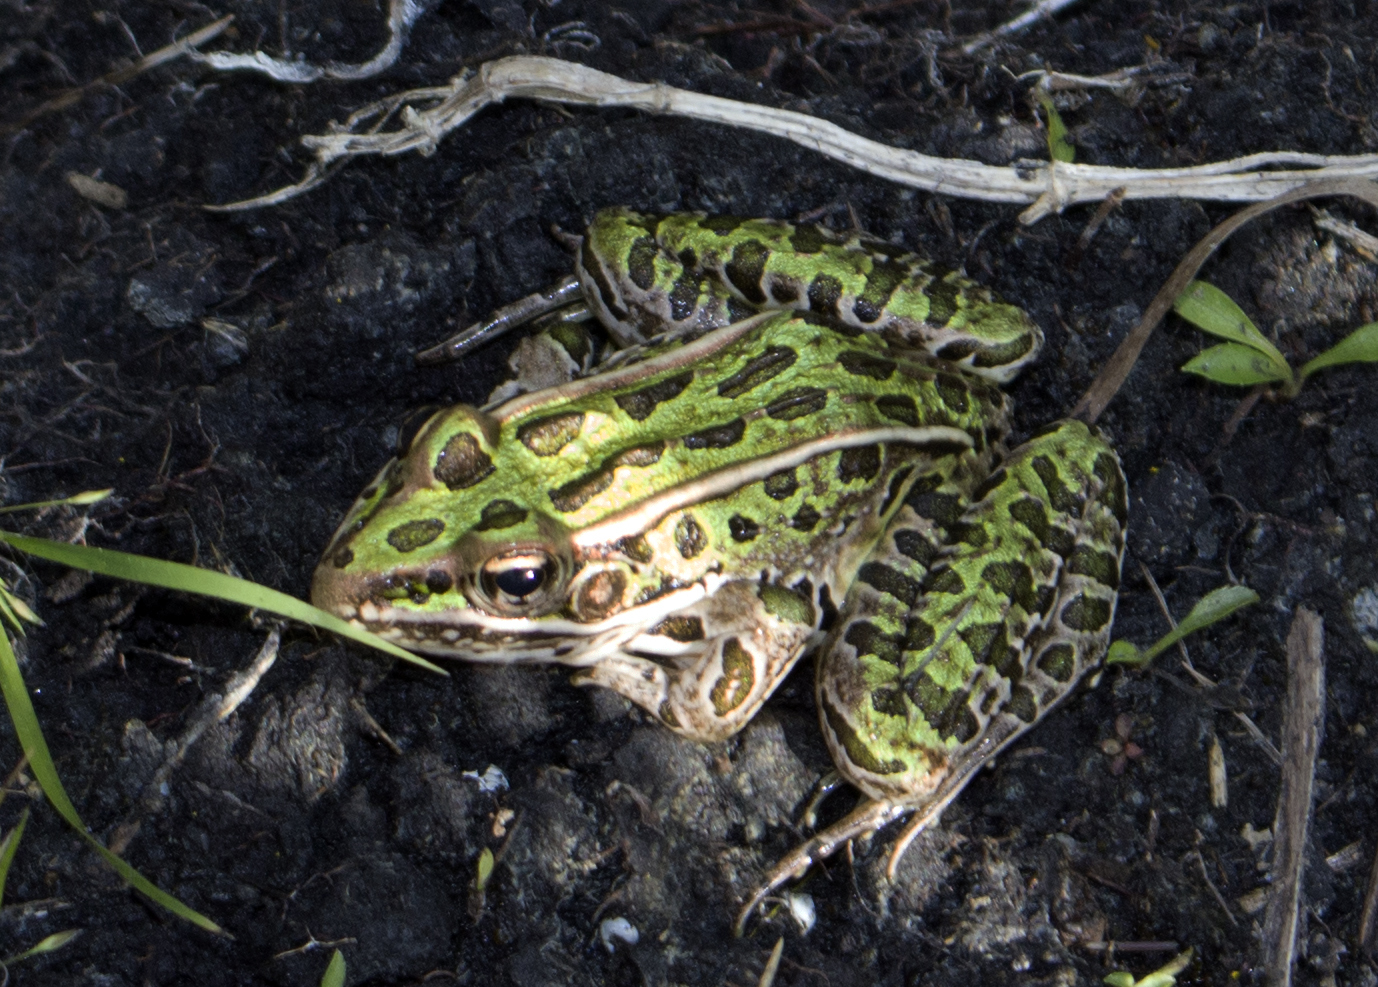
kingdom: Animalia
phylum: Chordata
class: Amphibia
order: Anura
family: Ranidae
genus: Lithobates
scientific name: Lithobates pipiens
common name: Northern leopard frog
